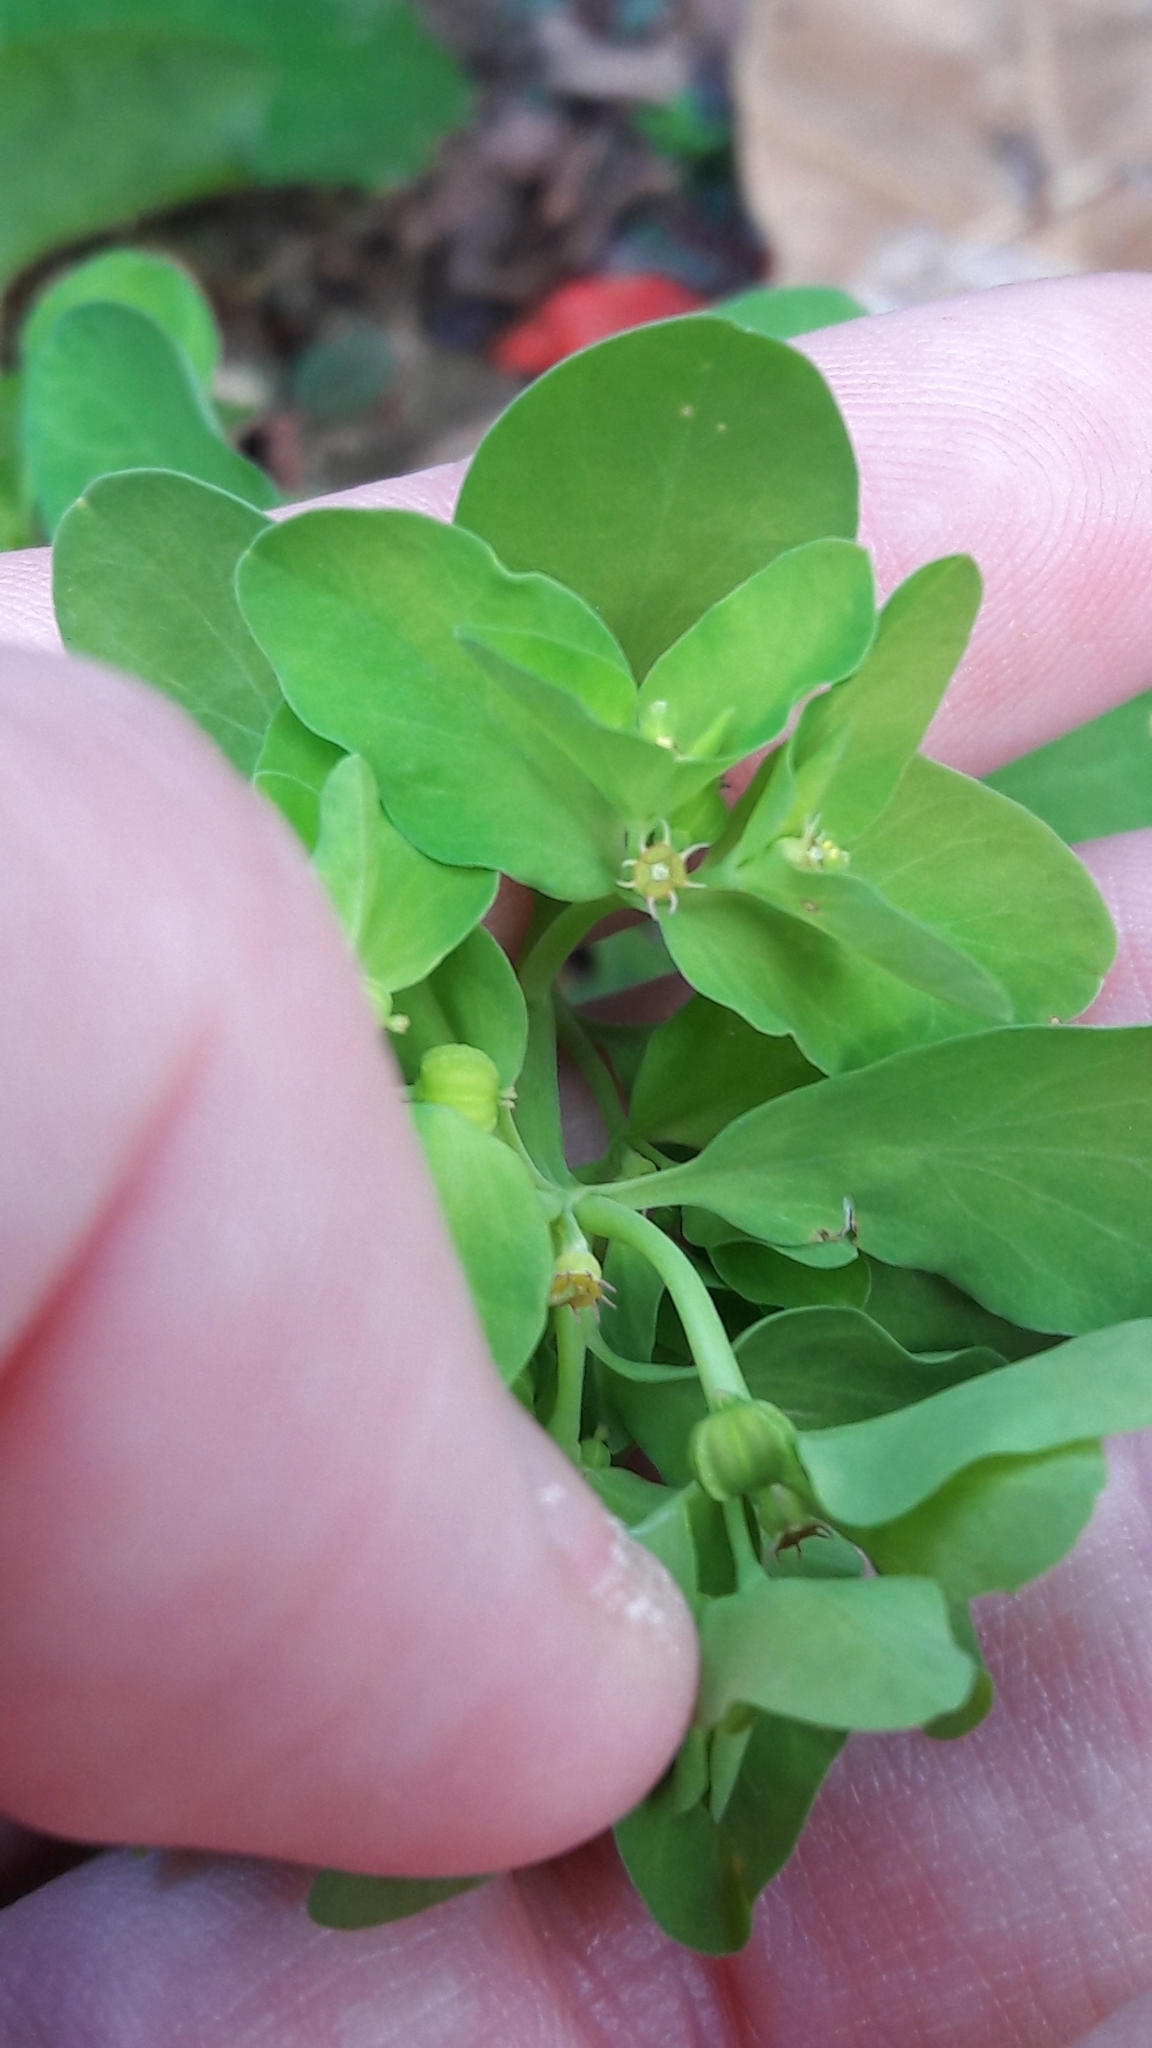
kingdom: Plantae
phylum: Tracheophyta
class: Magnoliopsida
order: Malpighiales
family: Euphorbiaceae
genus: Euphorbia
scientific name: Euphorbia peplus
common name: Petty spurge
